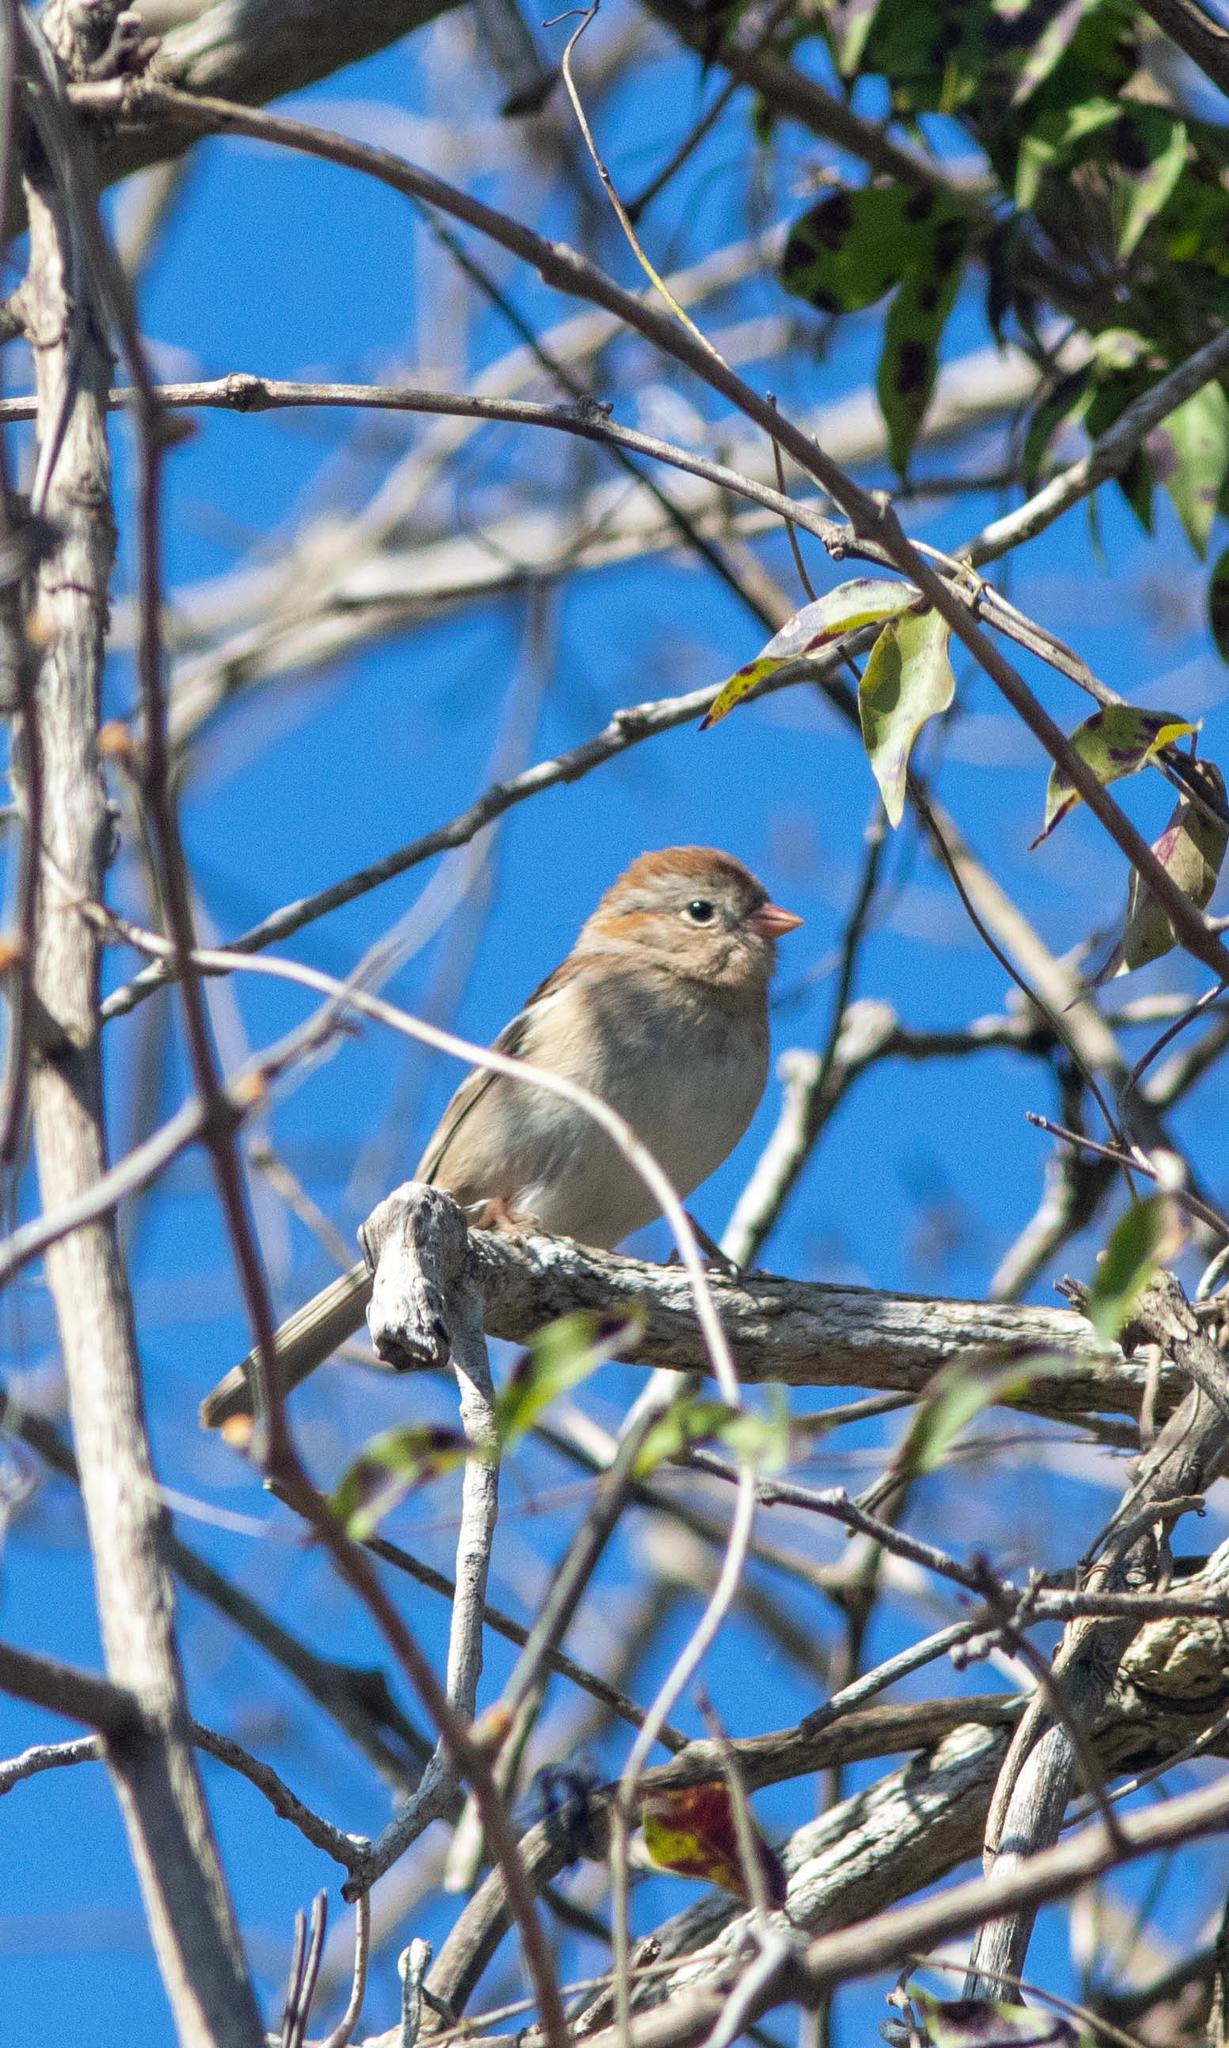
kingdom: Animalia
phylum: Chordata
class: Aves
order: Passeriformes
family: Passerellidae
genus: Spizella
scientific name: Spizella pusilla
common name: Field sparrow
